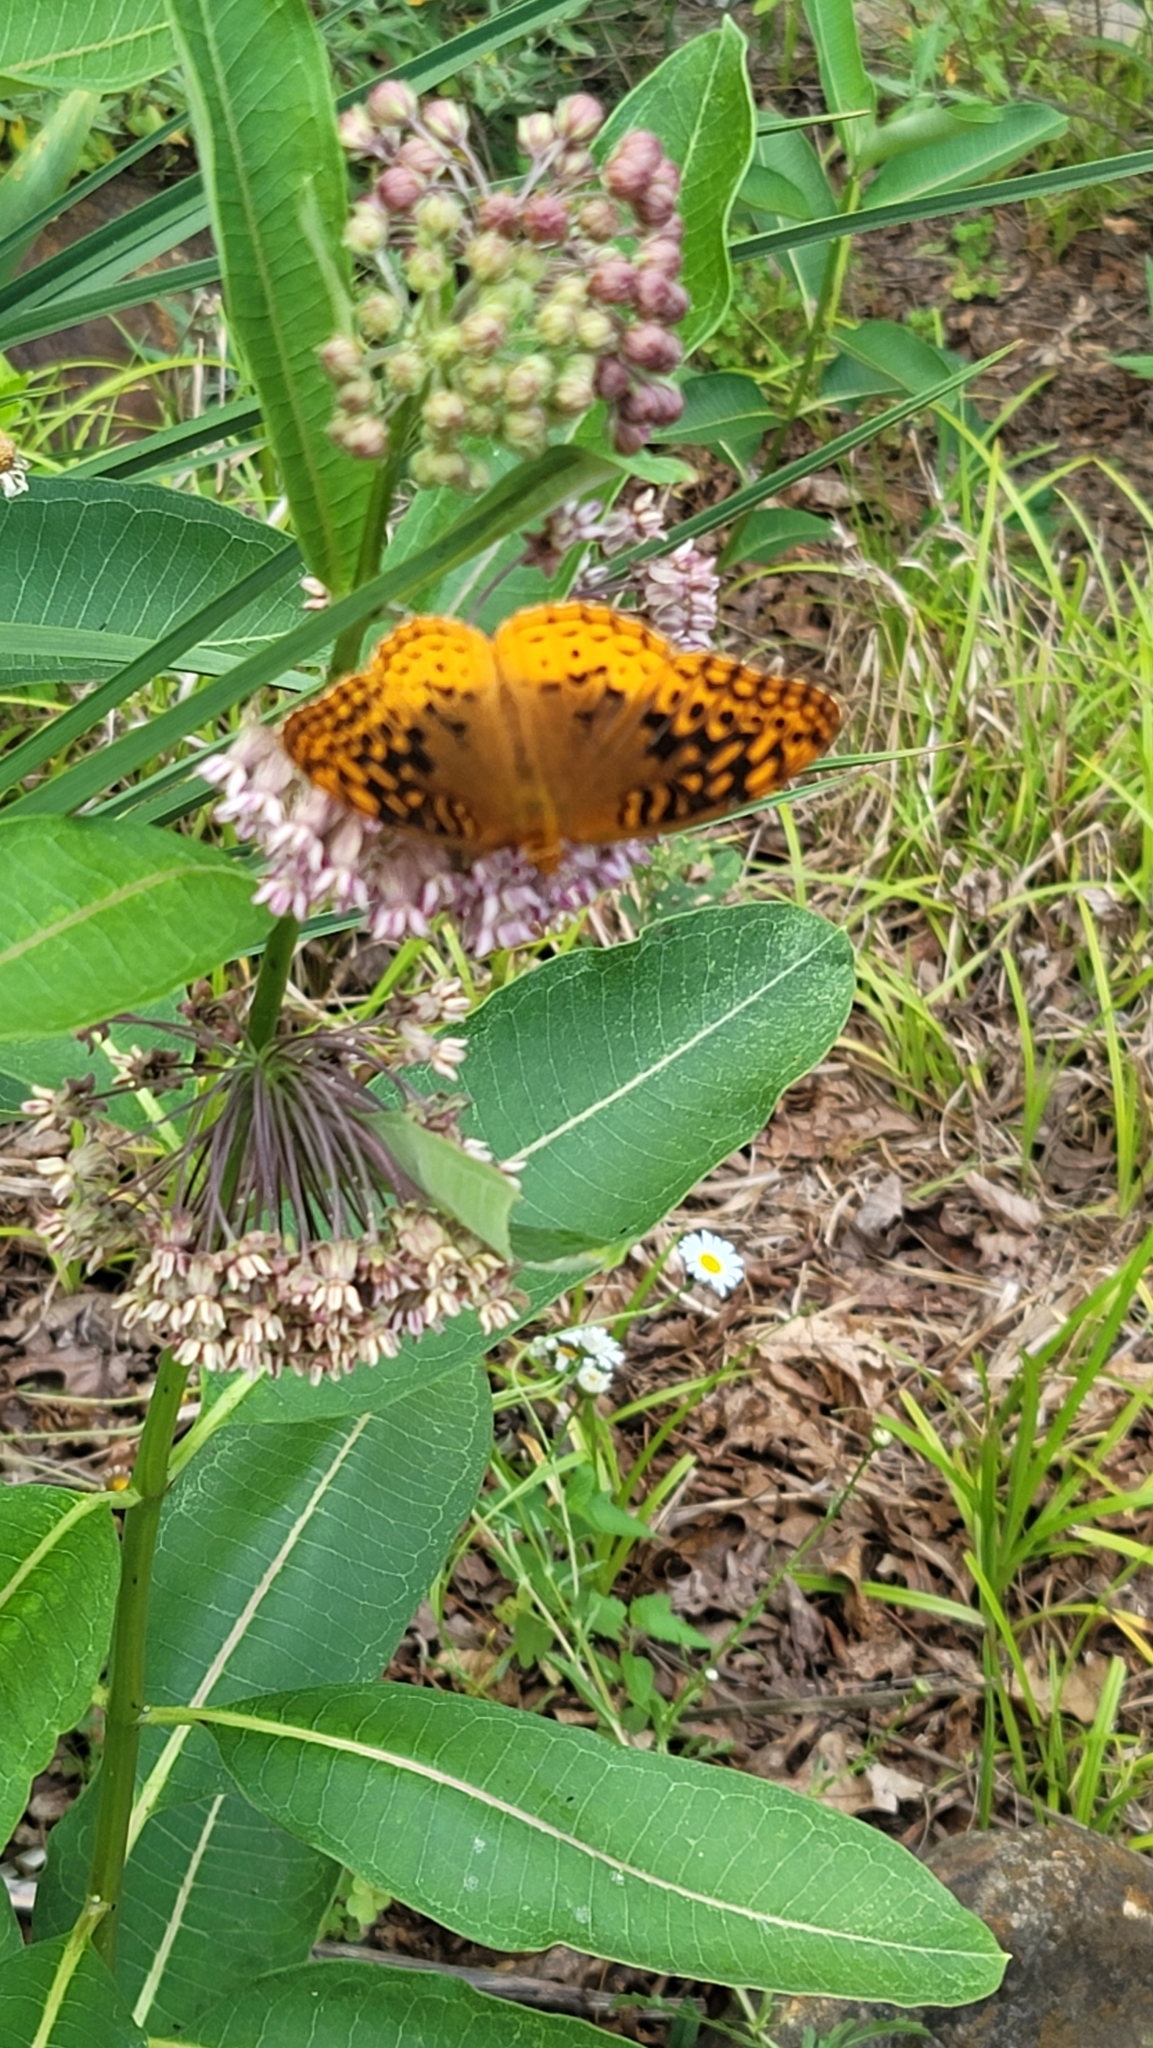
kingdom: Animalia
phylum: Arthropoda
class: Insecta
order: Lepidoptera
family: Nymphalidae
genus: Speyeria
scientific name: Speyeria cybele
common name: Great spangled fritillary
